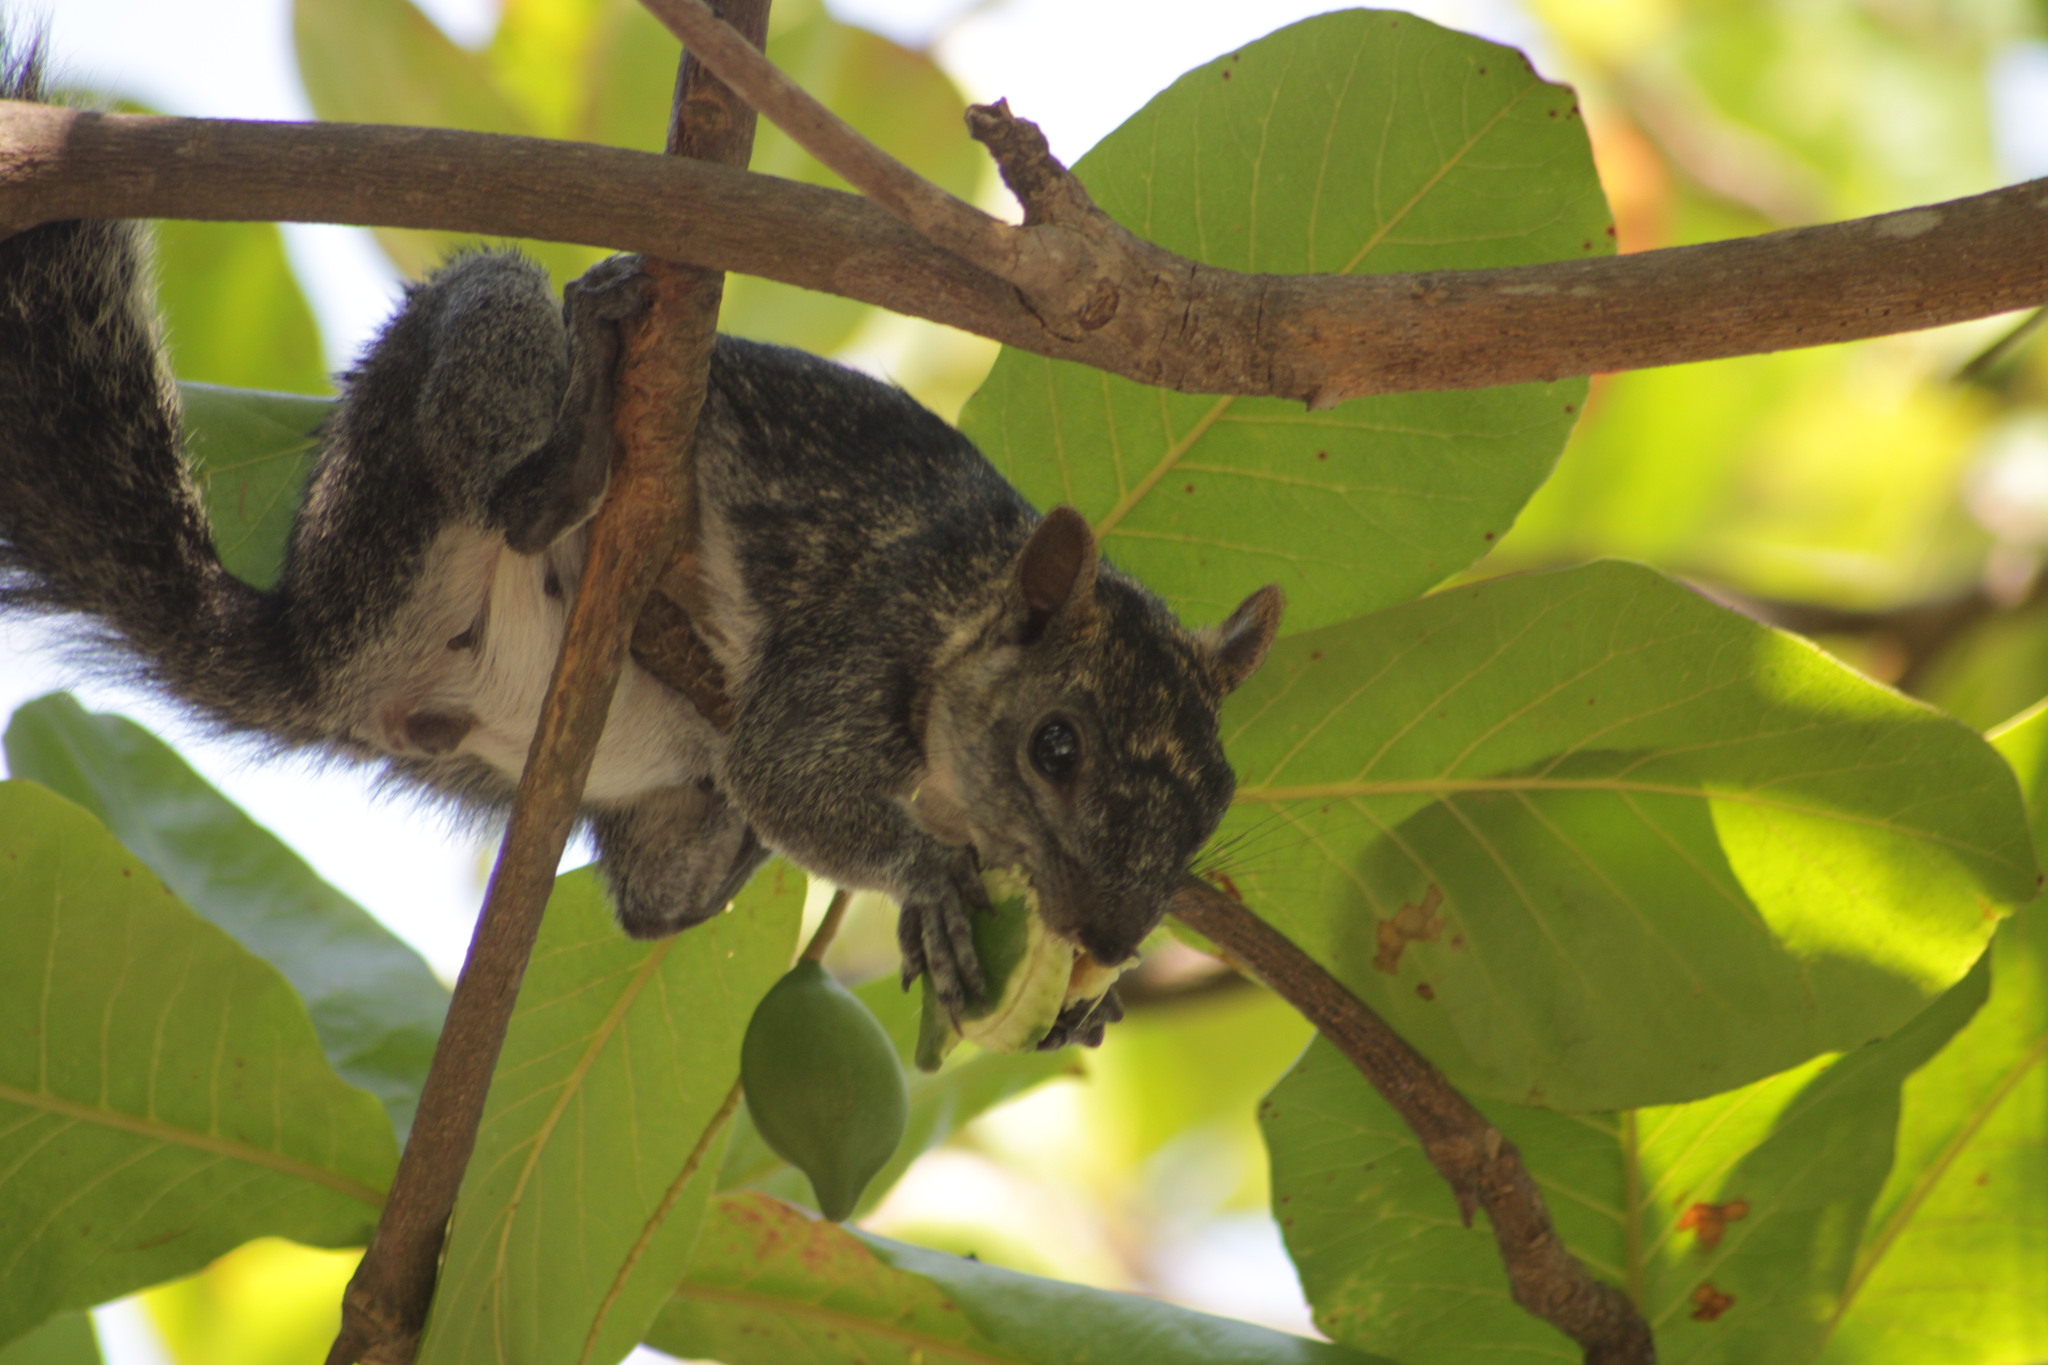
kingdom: Animalia
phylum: Chordata
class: Mammalia
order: Rodentia
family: Sciuridae
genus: Sciurus
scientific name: Sciurus colliaei
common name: Collie's squirrel
